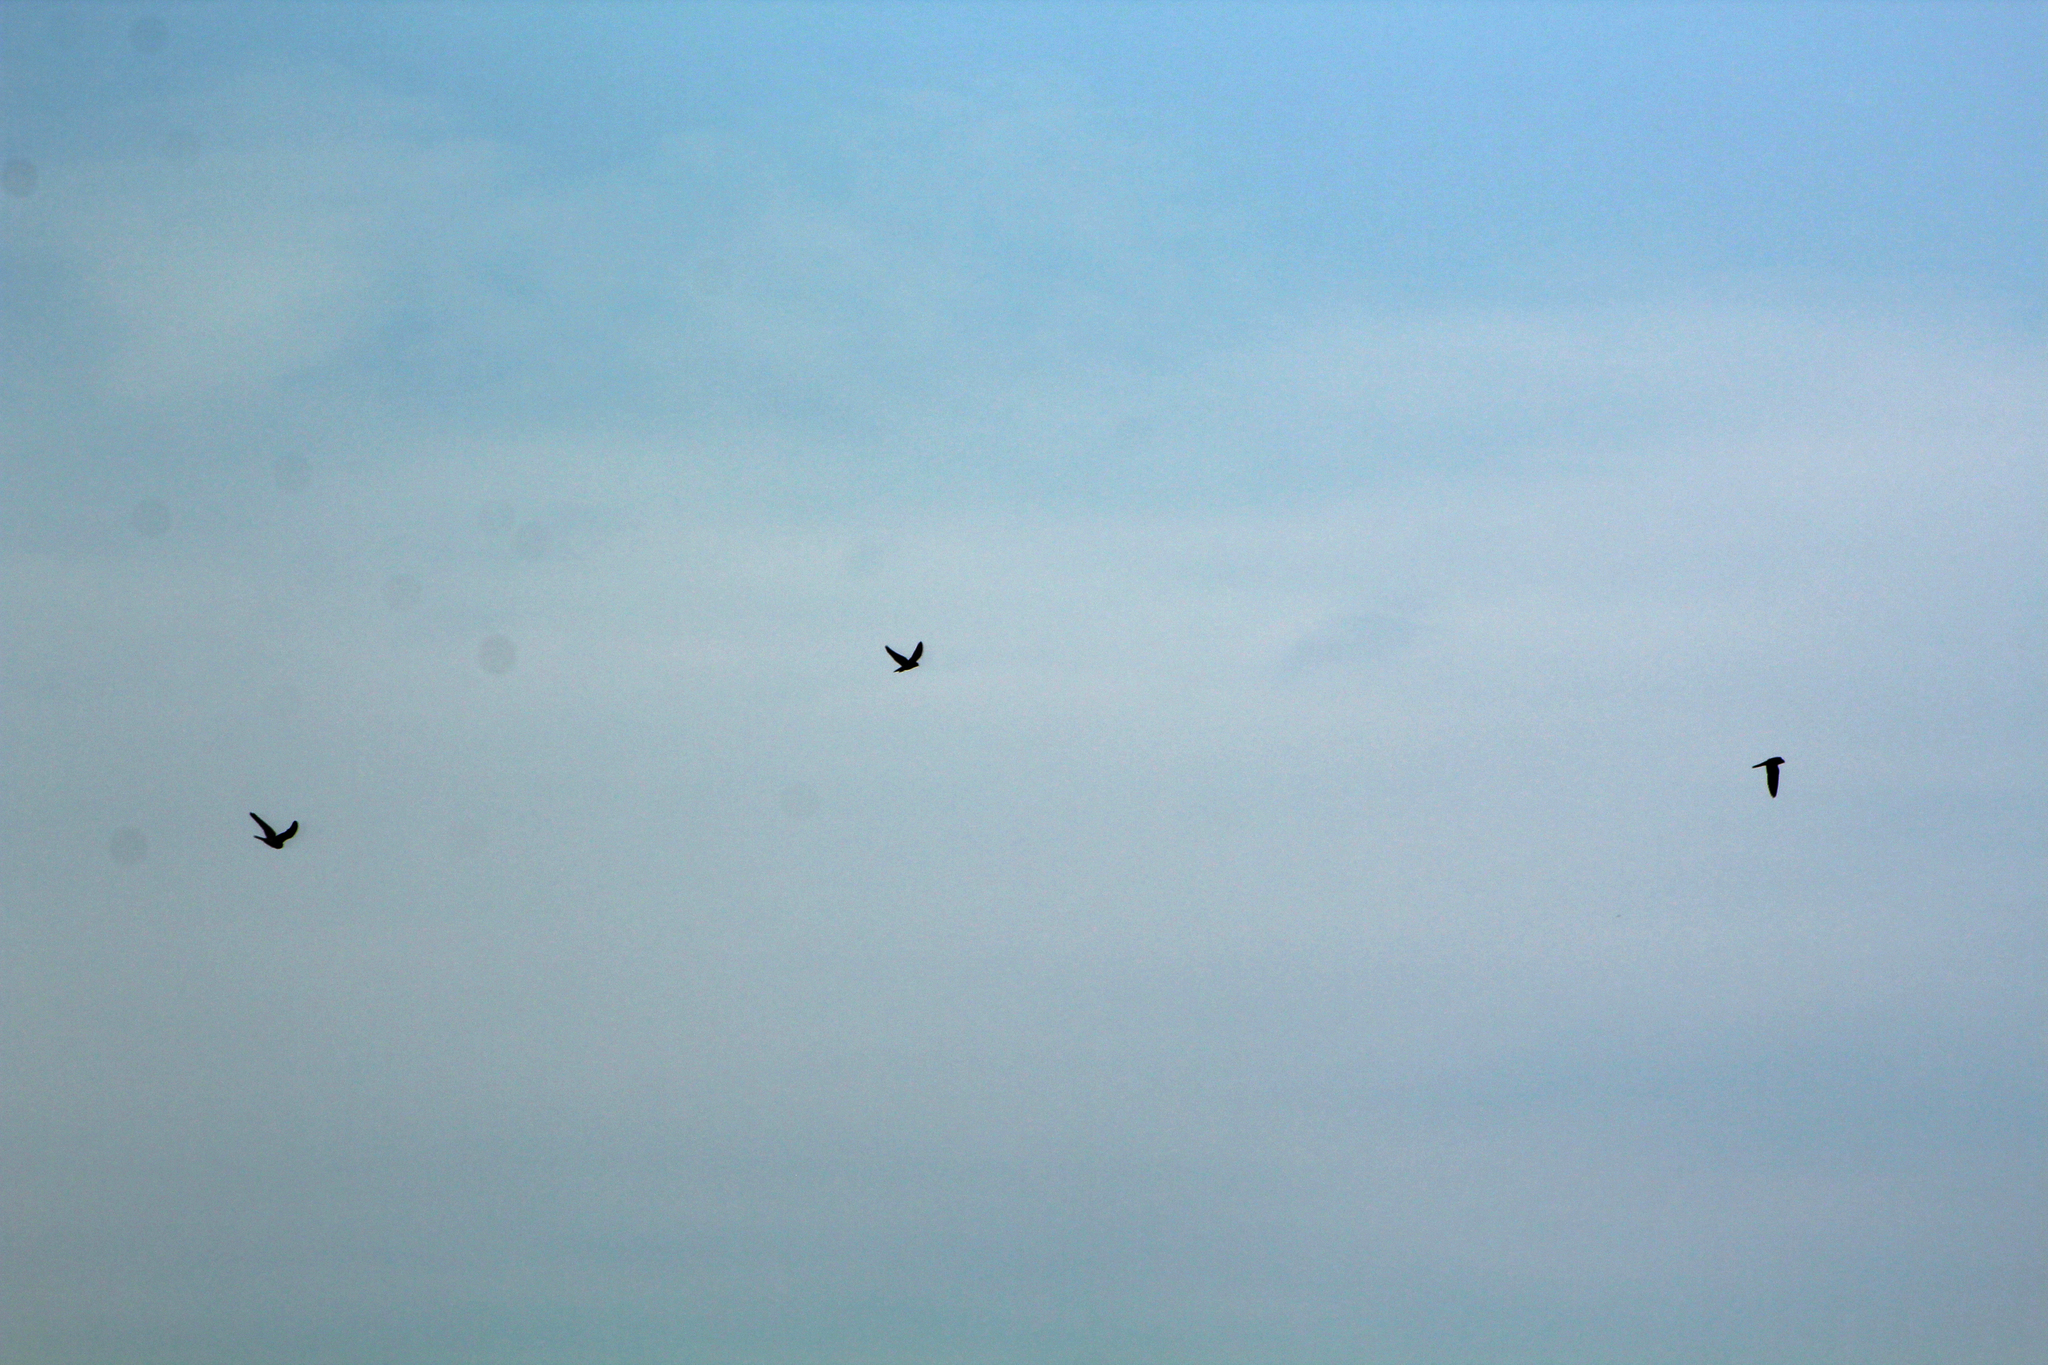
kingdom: Animalia
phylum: Chordata
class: Aves
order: Falconiformes
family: Falconidae
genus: Falco
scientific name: Falco tinnunculus
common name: Common kestrel
